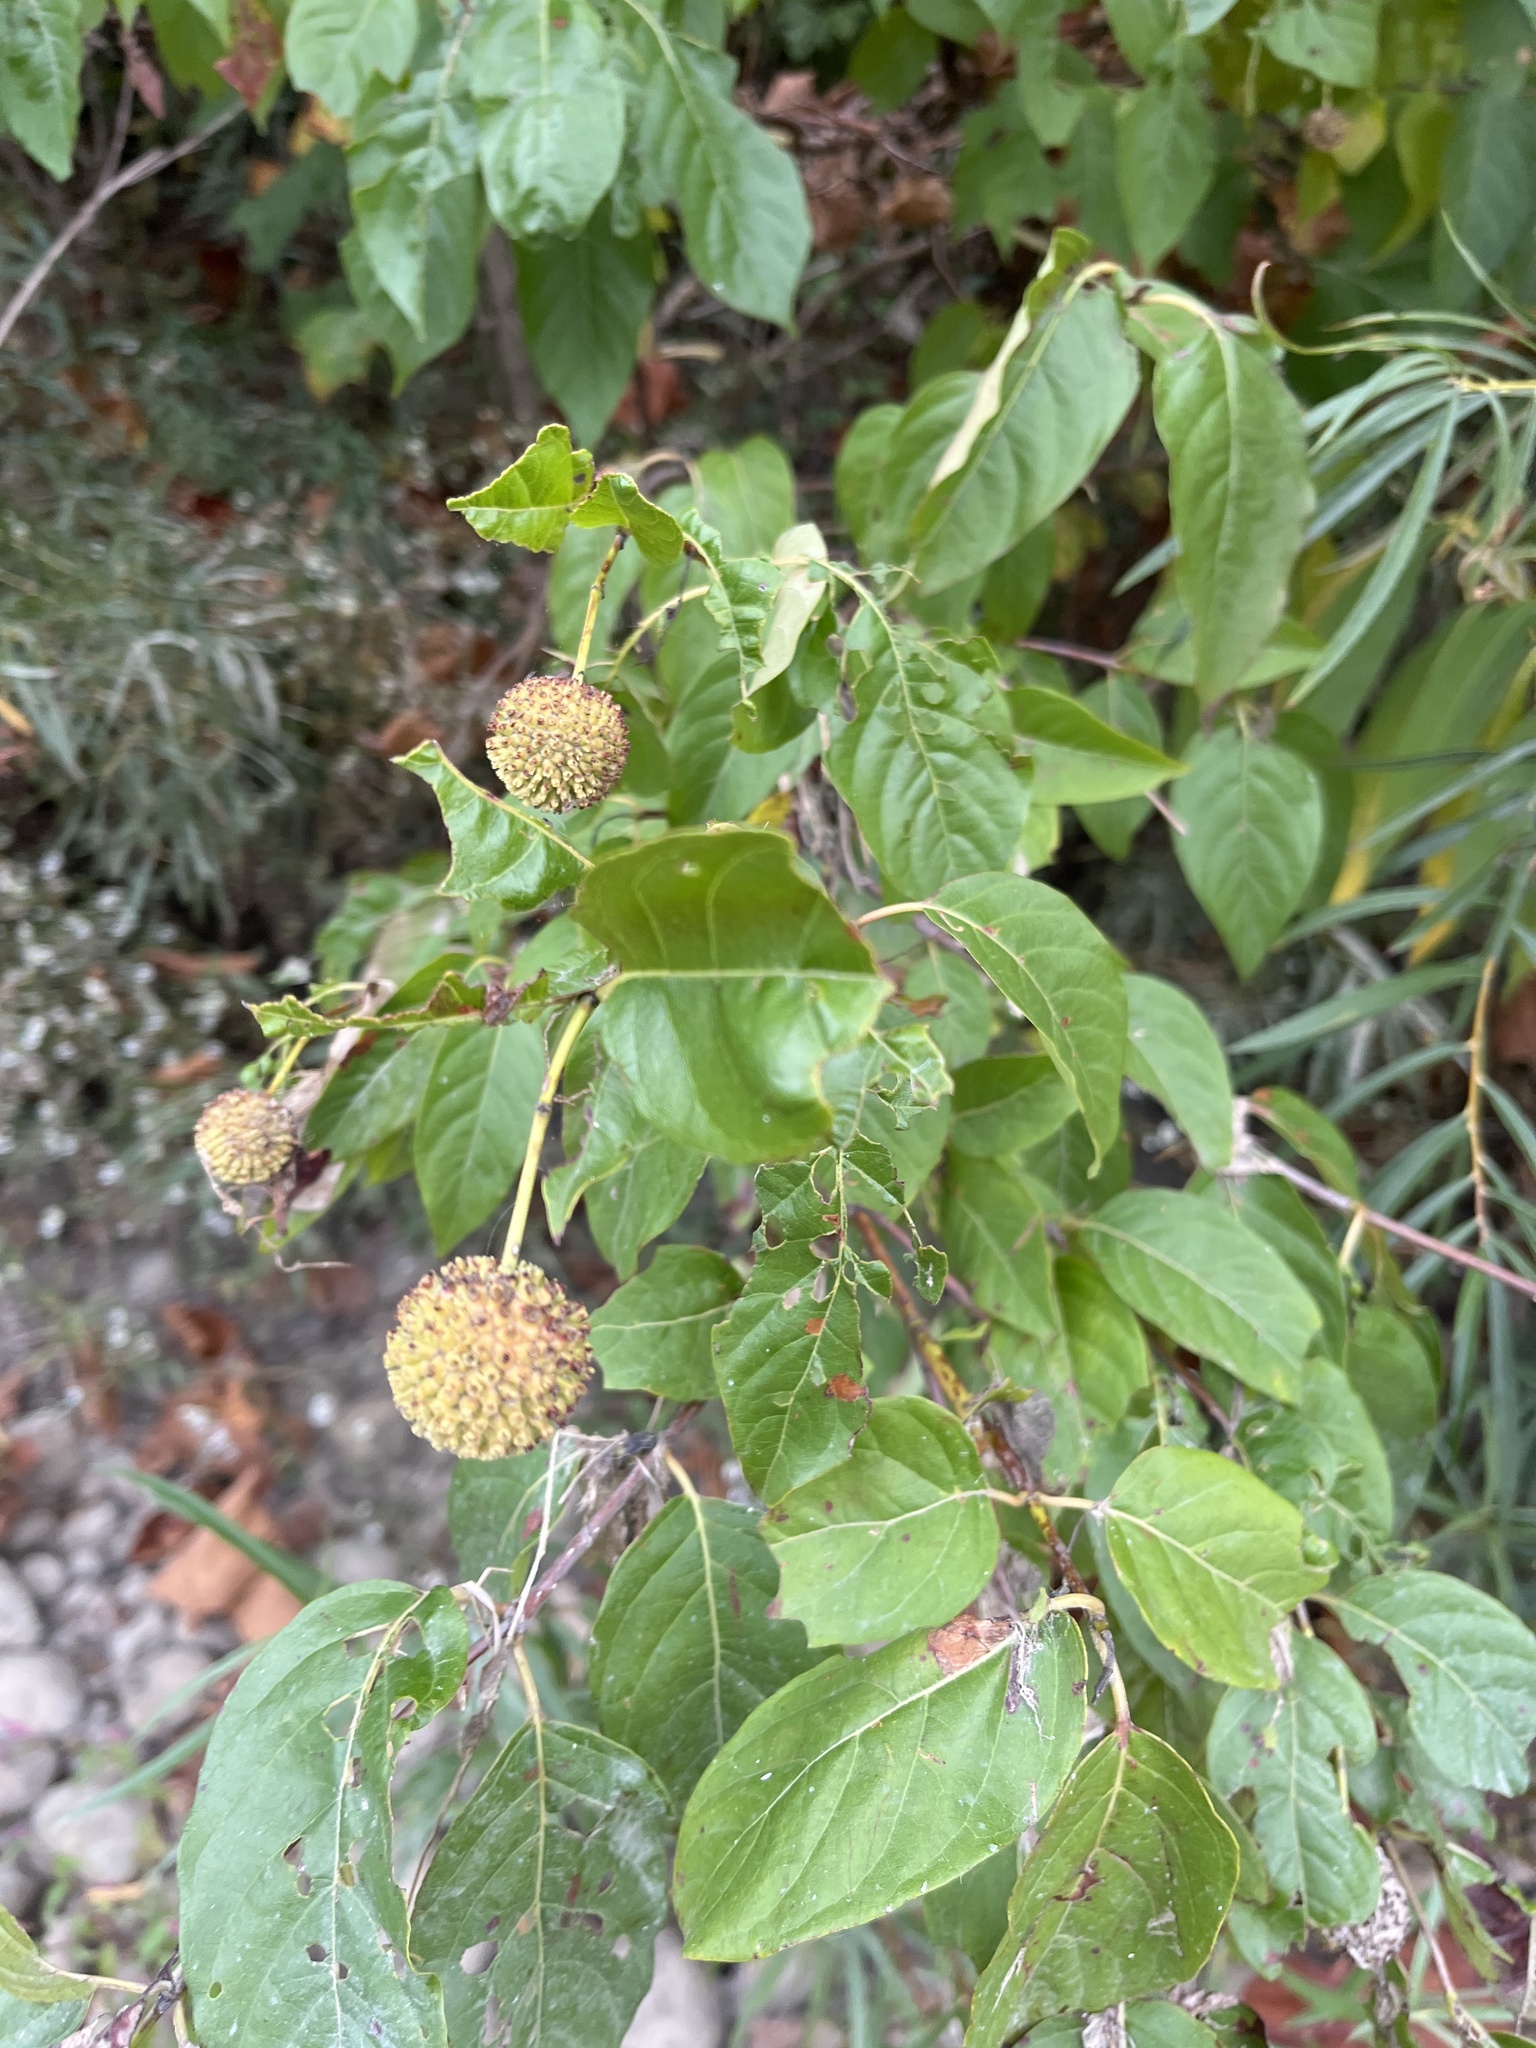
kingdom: Plantae
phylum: Tracheophyta
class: Magnoliopsida
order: Gentianales
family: Rubiaceae
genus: Cephalanthus
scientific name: Cephalanthus occidentalis
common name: Button-willow
